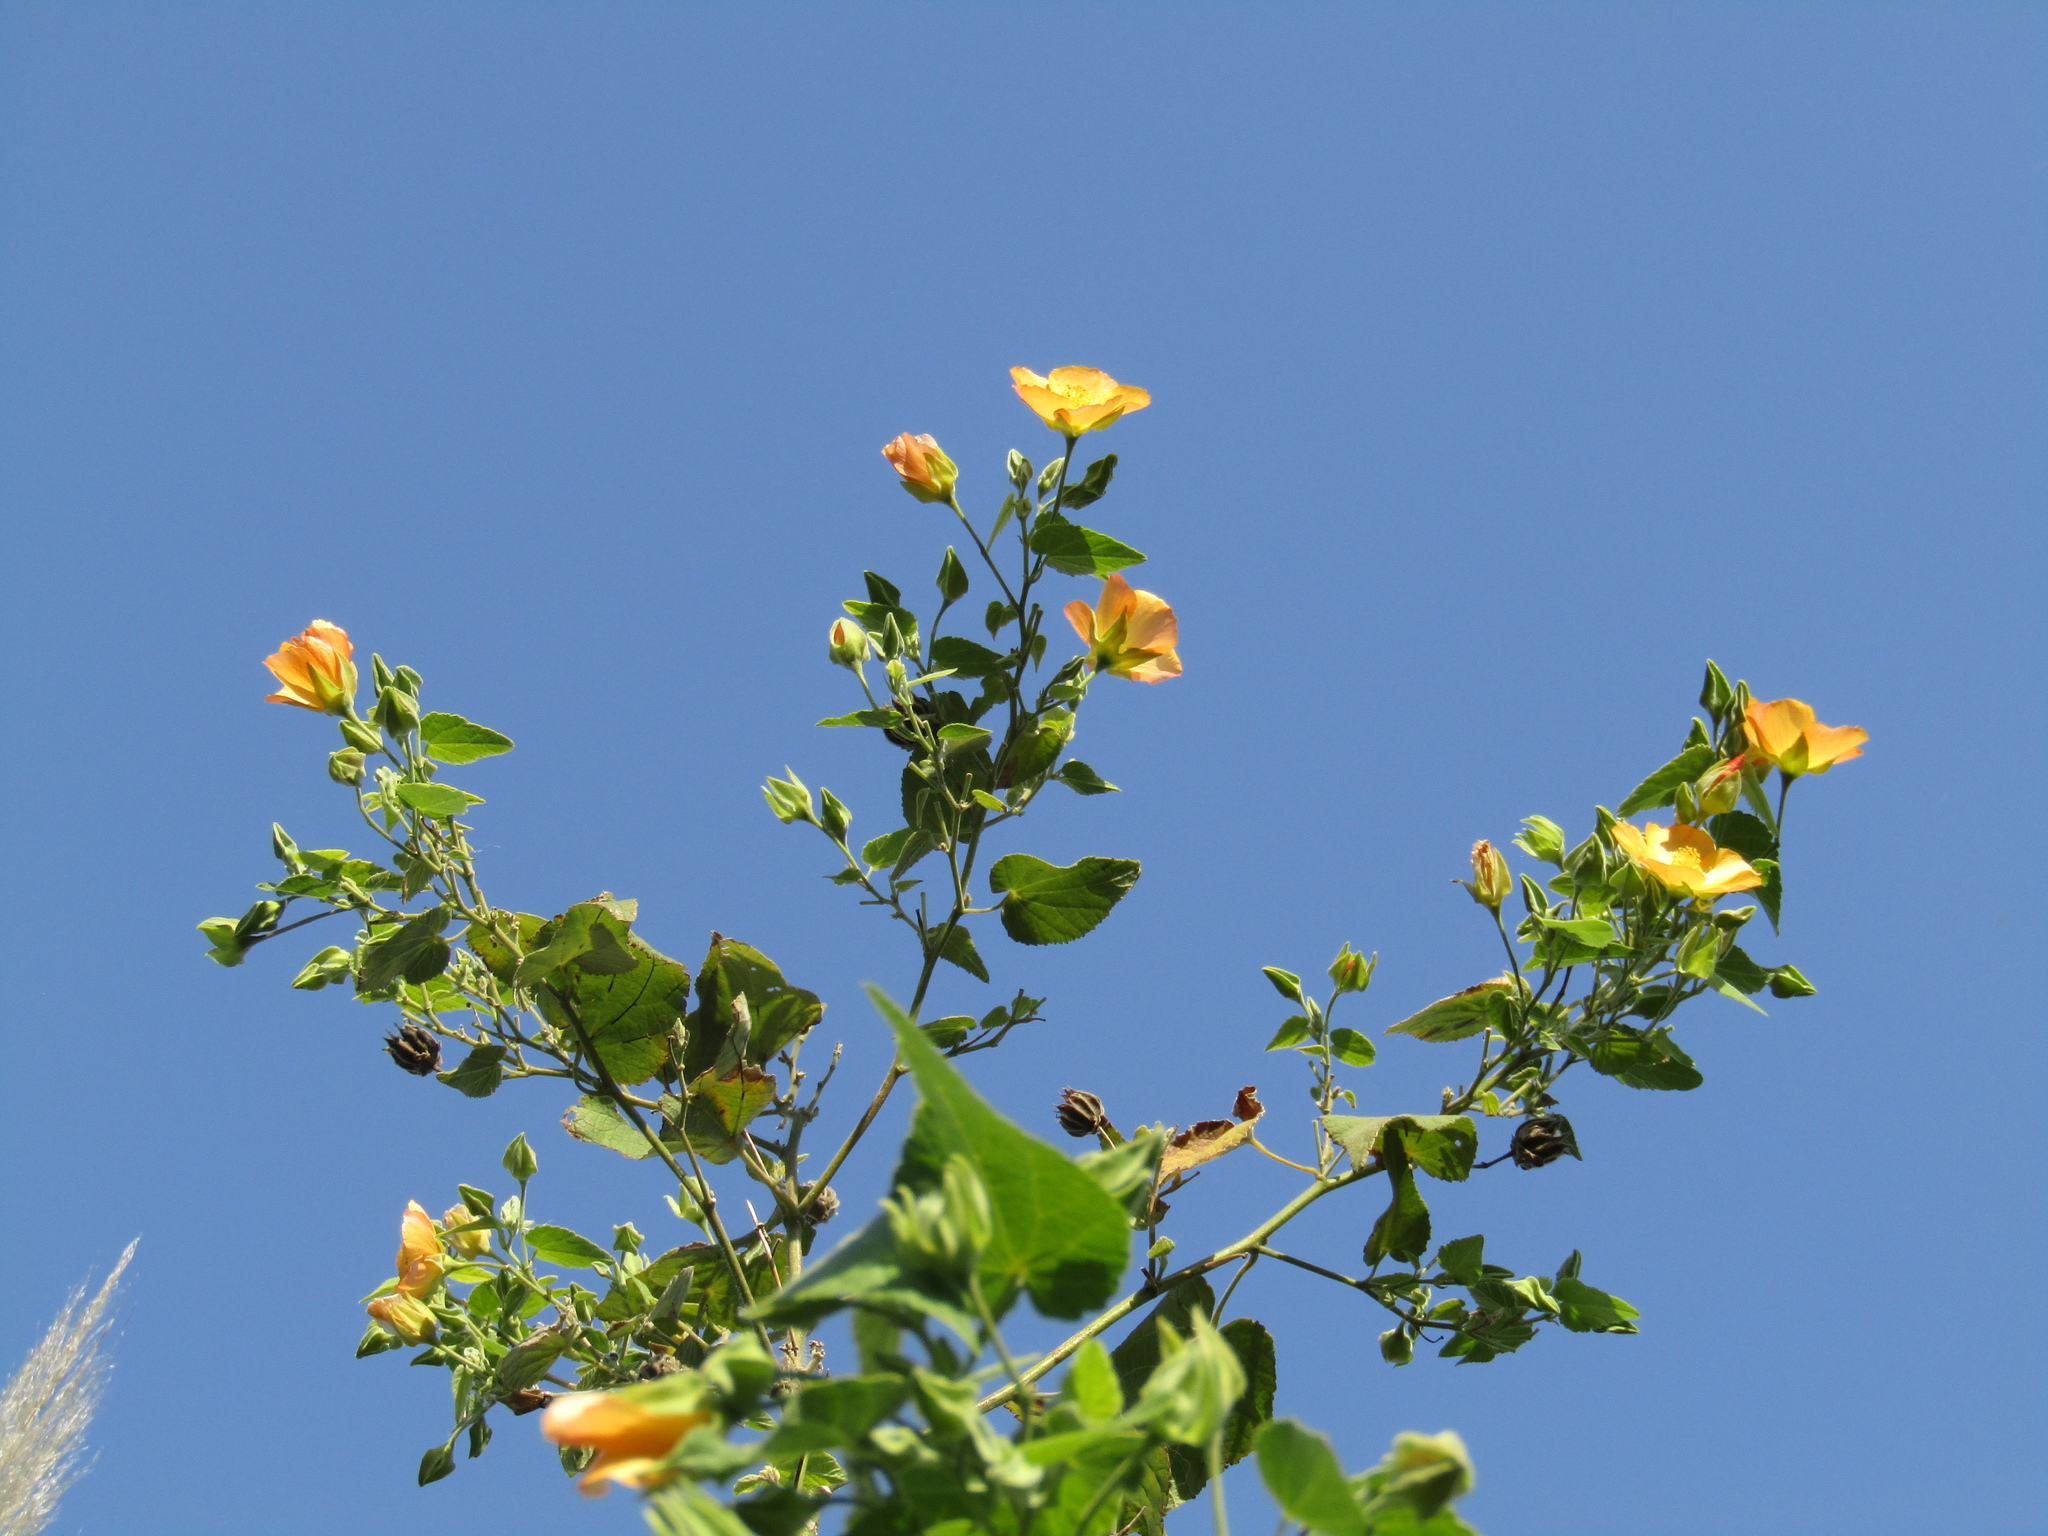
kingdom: Plantae
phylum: Tracheophyta
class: Magnoliopsida
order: Malvales
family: Malvaceae
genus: Abutilon
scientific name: Abutilon grandifolium
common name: Hairy abutilon
